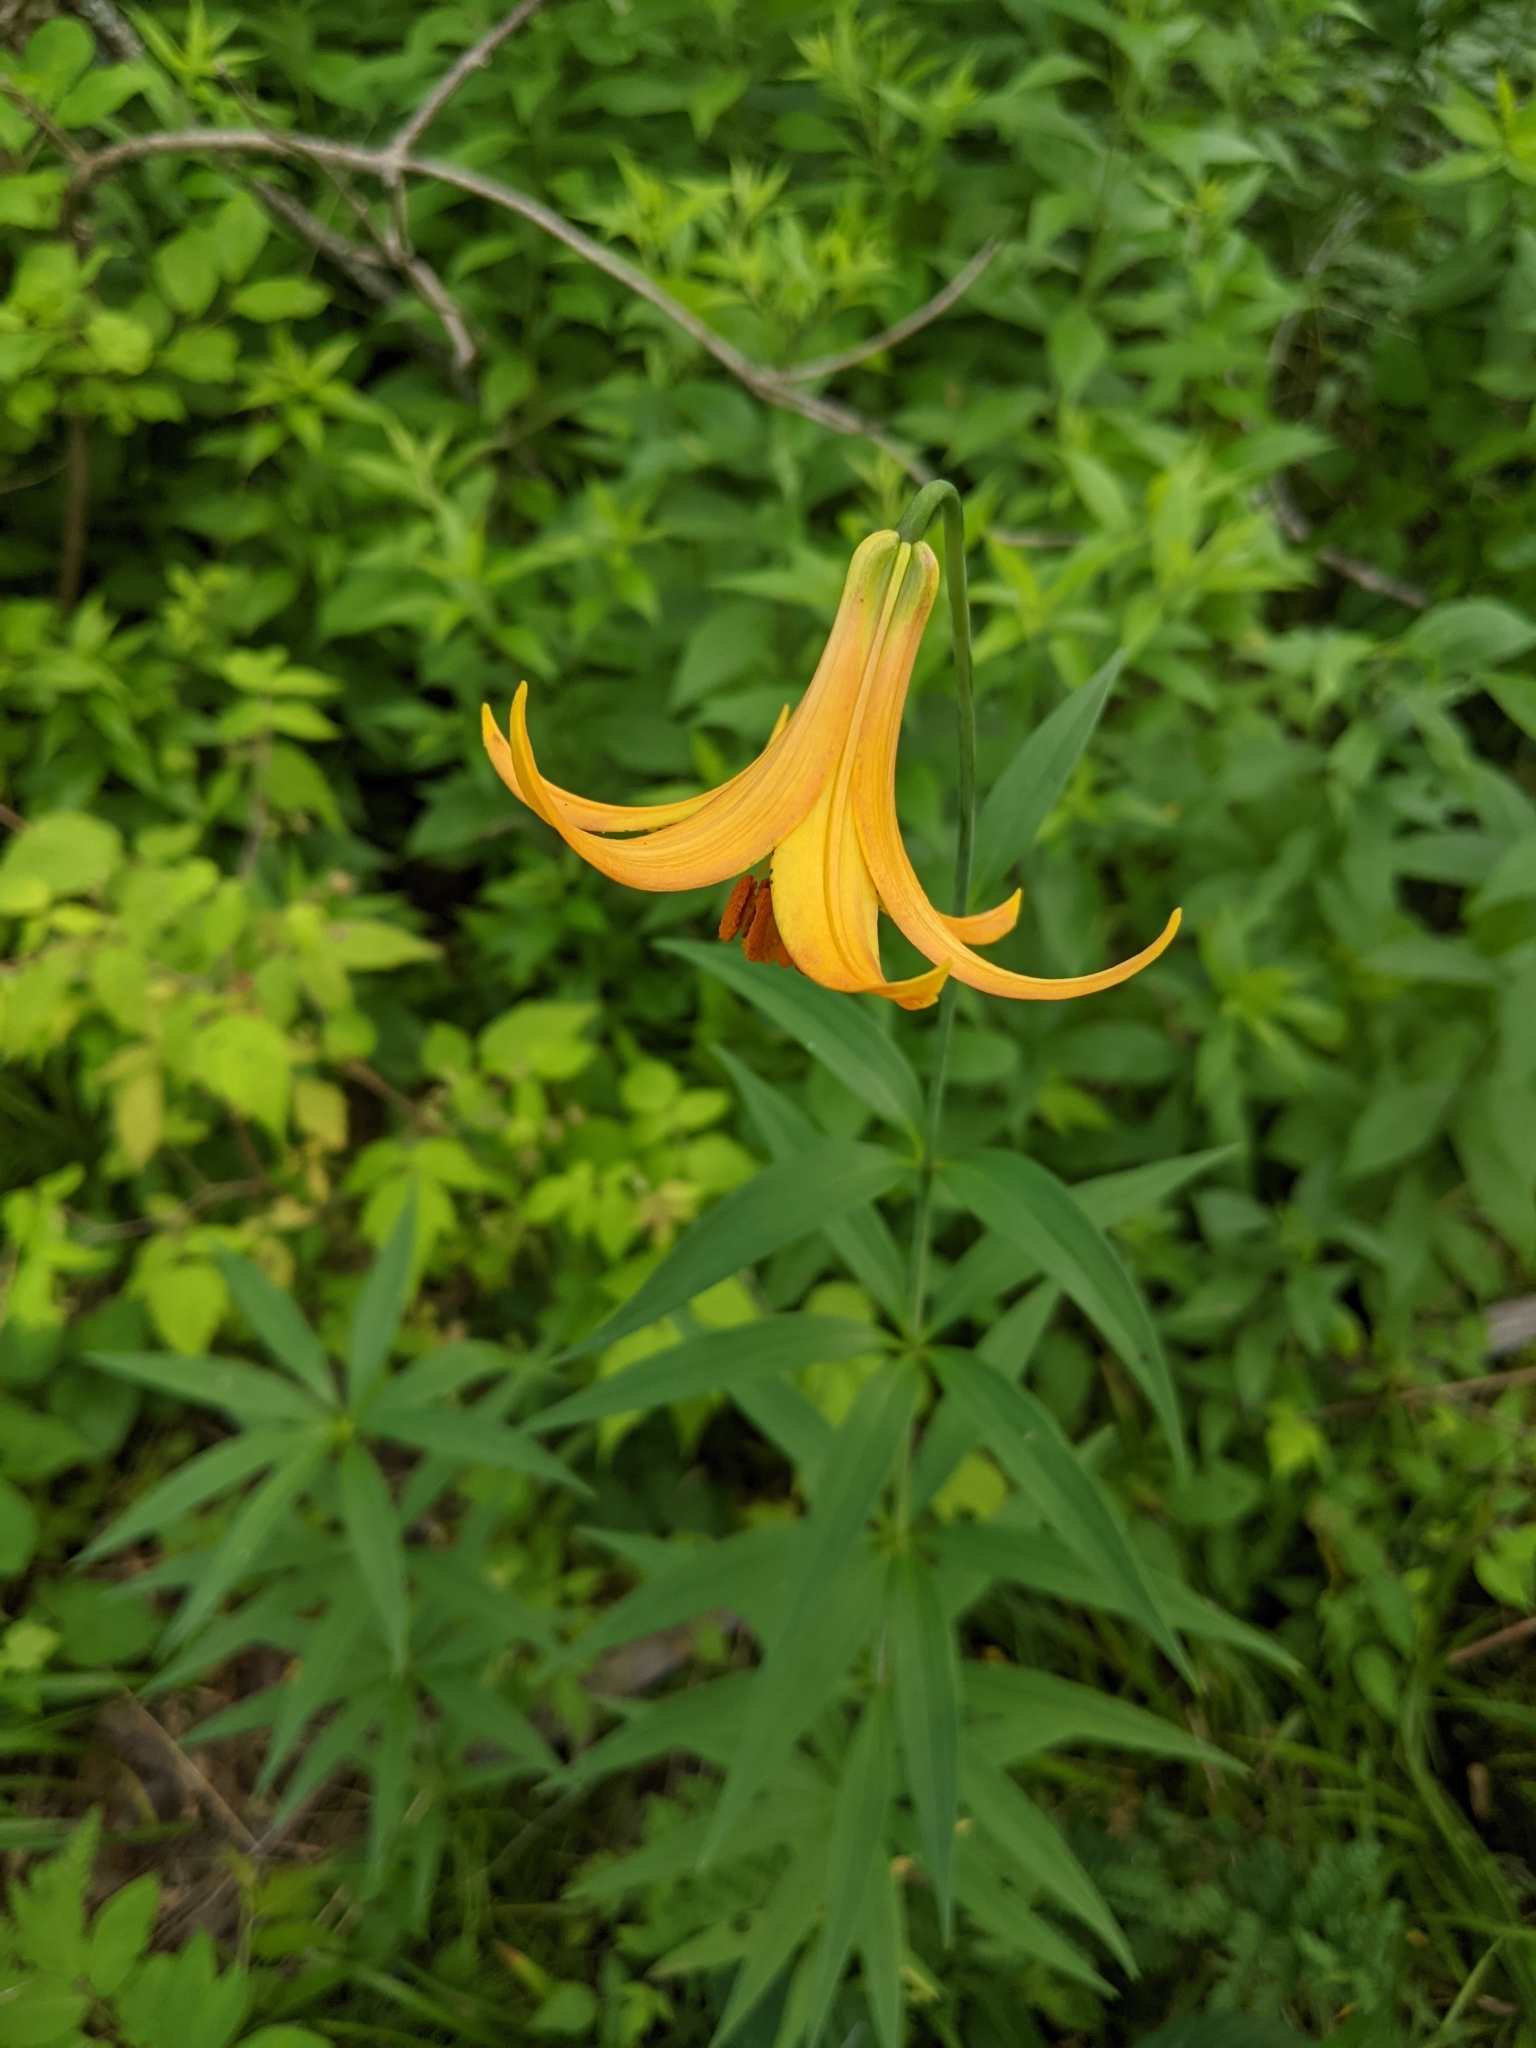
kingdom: Plantae
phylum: Tracheophyta
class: Liliopsida
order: Liliales
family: Liliaceae
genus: Lilium
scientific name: Lilium canadense
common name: Canada lily
